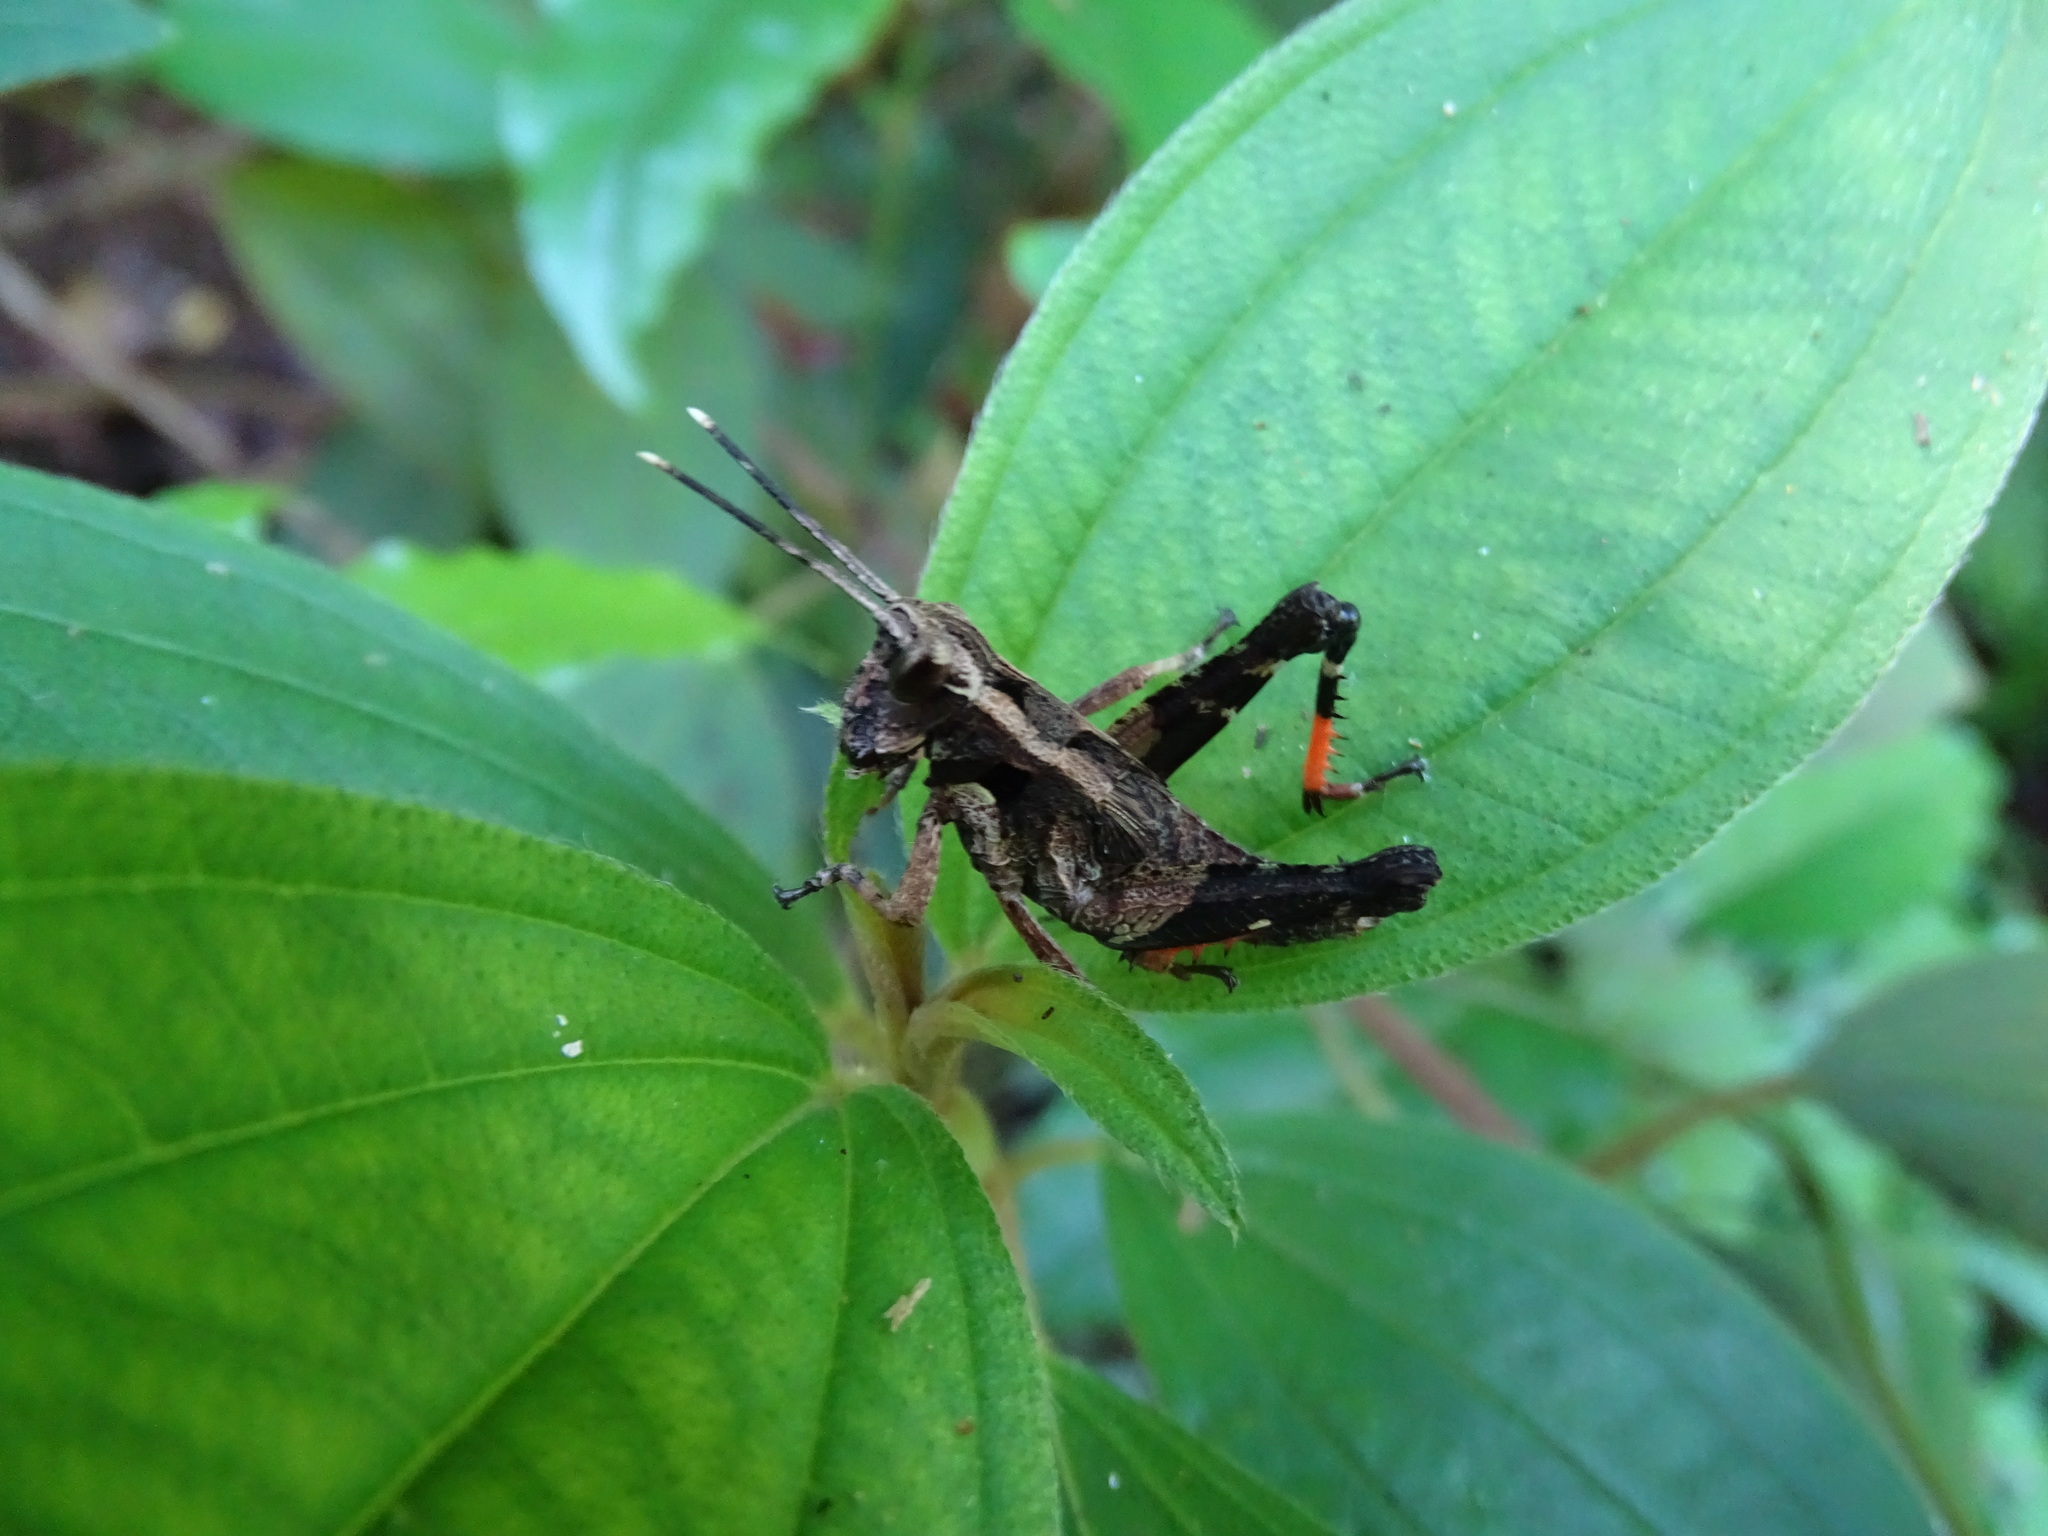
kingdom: Animalia
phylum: Arthropoda
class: Insecta
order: Orthoptera
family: Acrididae
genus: Traulia
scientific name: Traulia ornata
